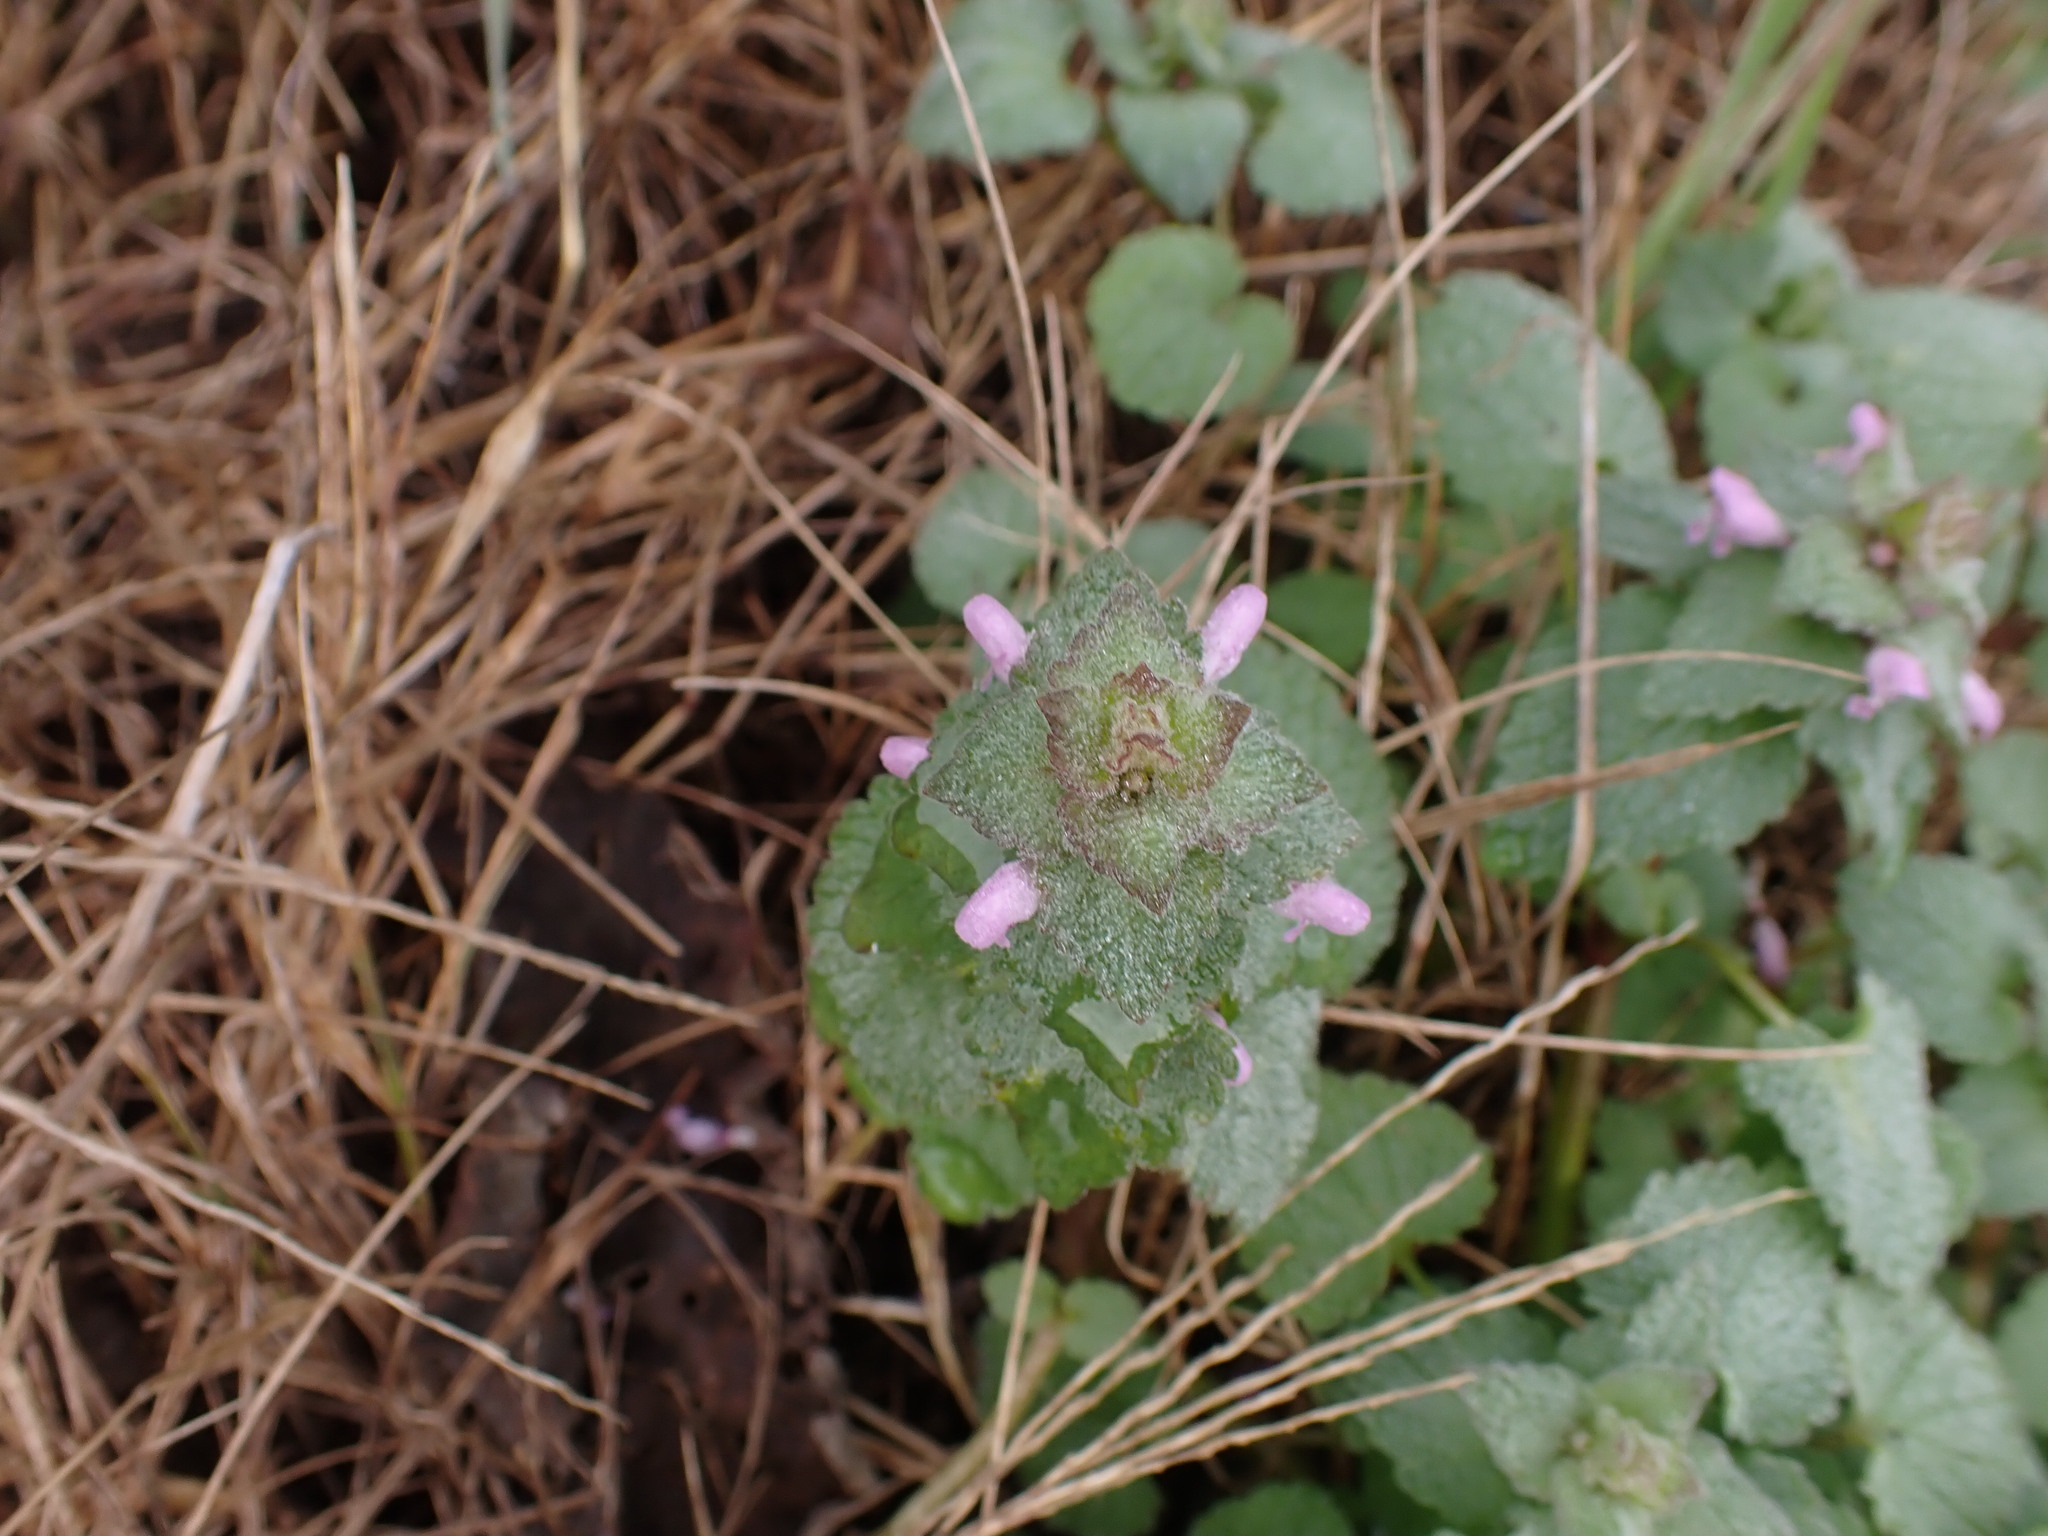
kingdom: Plantae
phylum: Tracheophyta
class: Magnoliopsida
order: Lamiales
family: Lamiaceae
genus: Lamium
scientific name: Lamium purpureum
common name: Red dead-nettle
